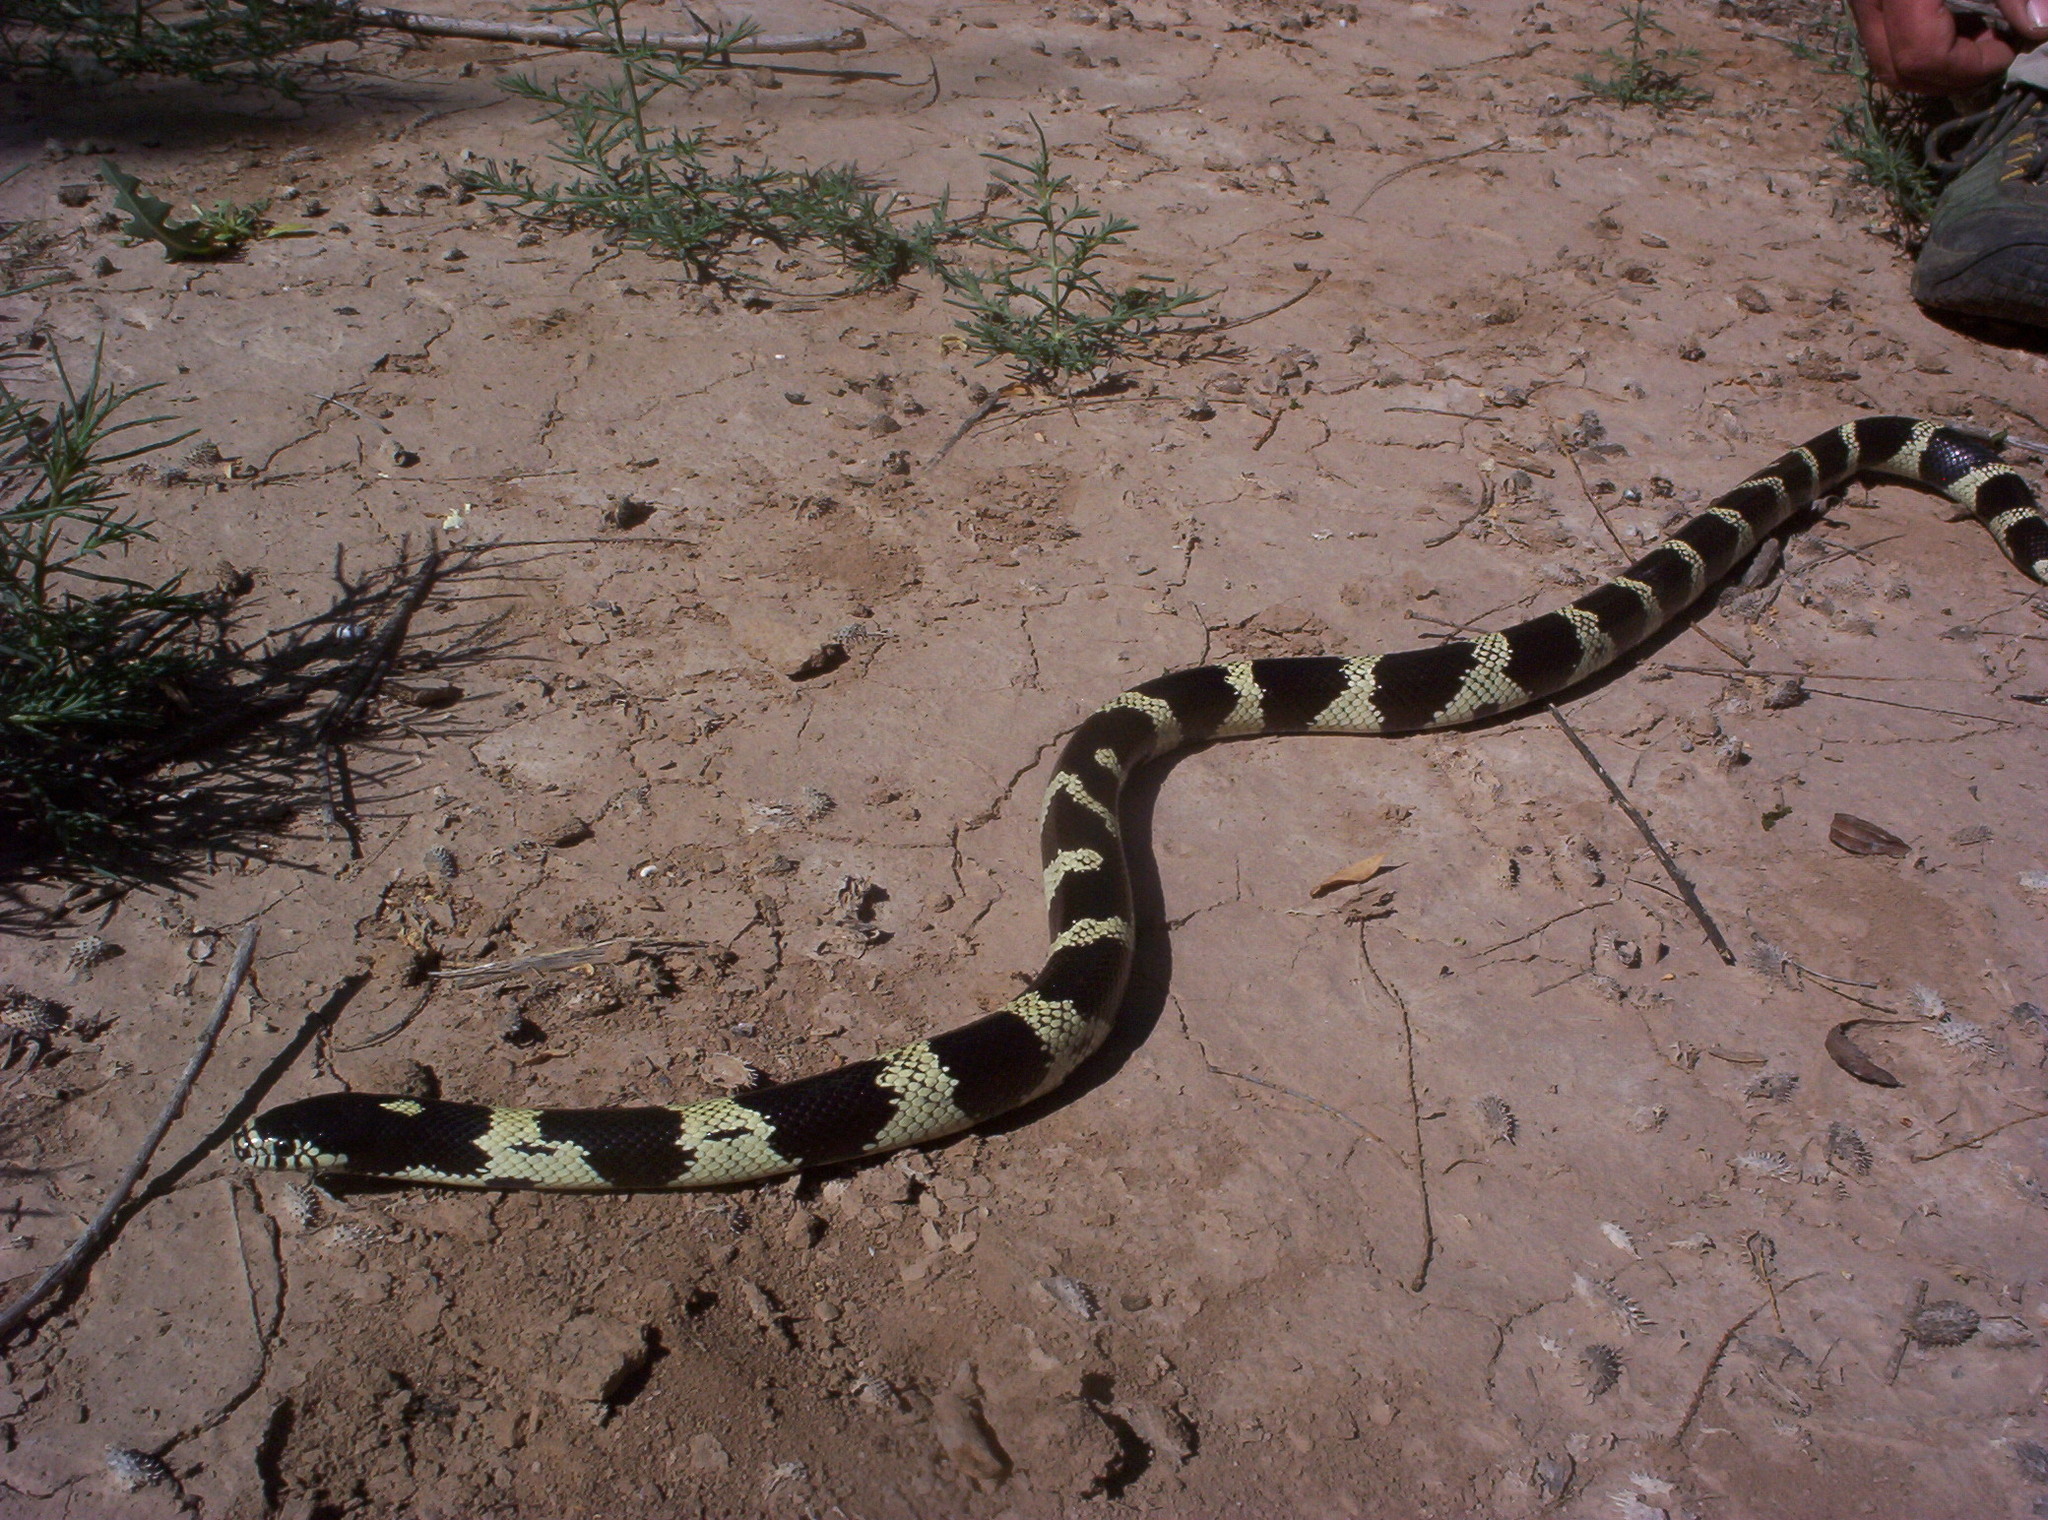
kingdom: Animalia
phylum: Chordata
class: Squamata
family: Colubridae
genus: Lampropeltis
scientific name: Lampropeltis californiae
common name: California kingsnake
